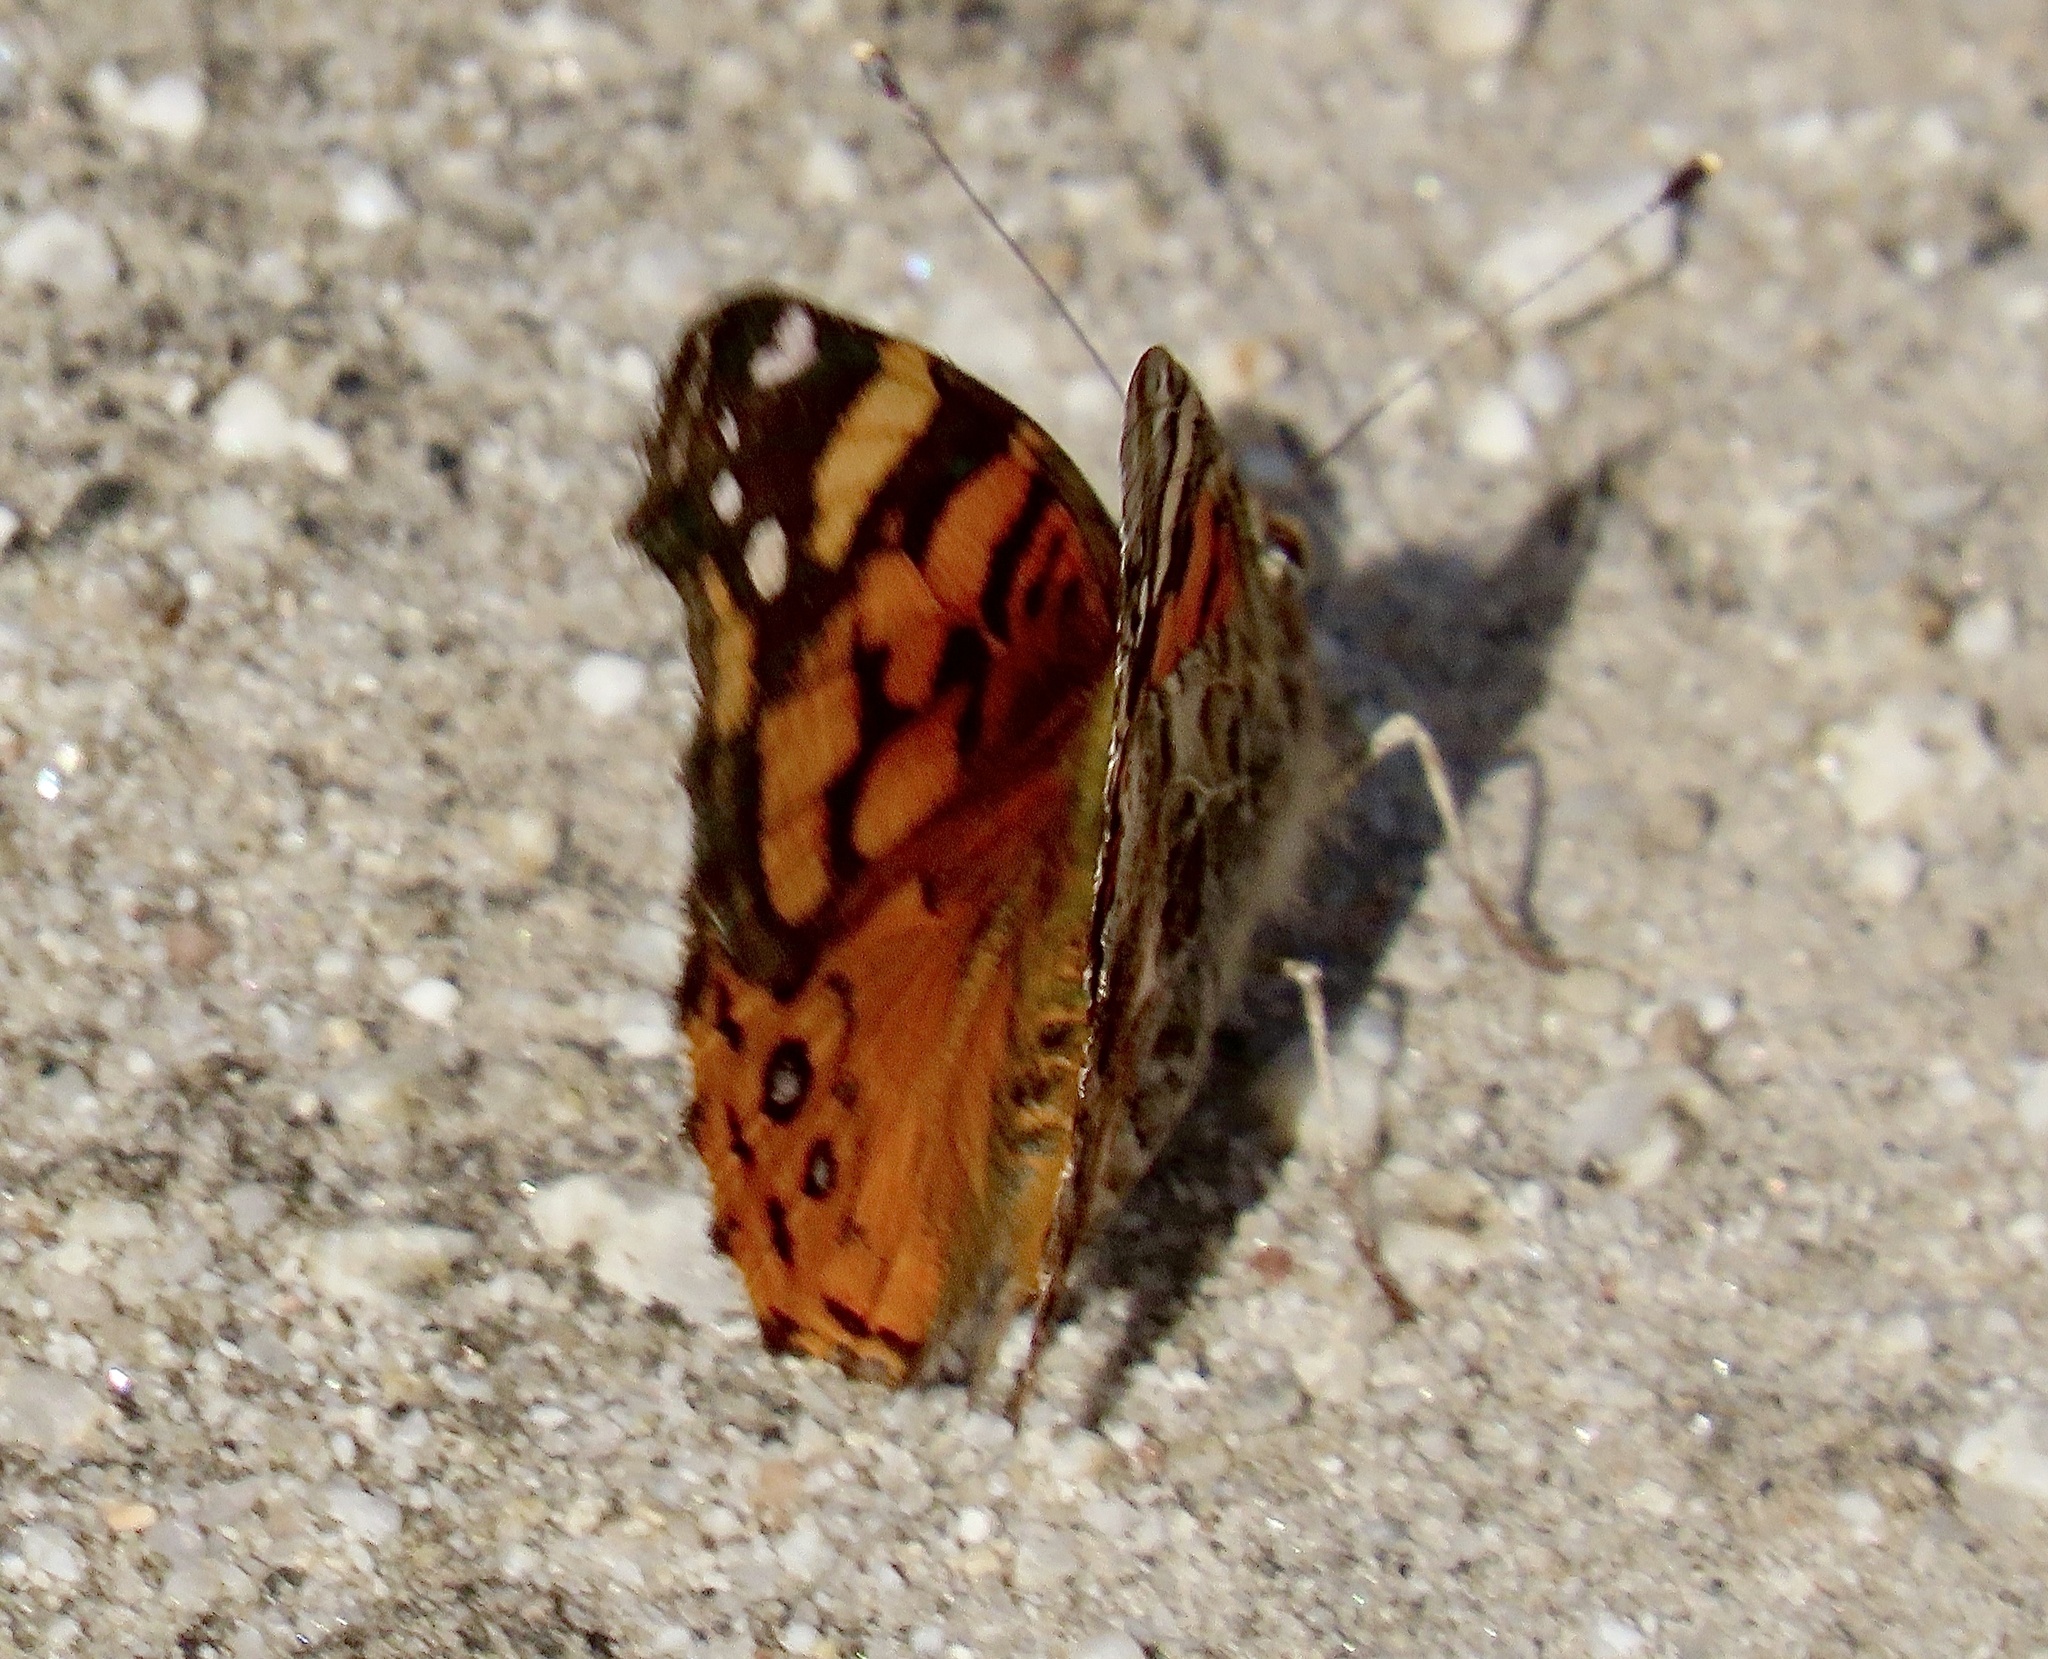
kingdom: Animalia
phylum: Arthropoda
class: Insecta
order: Lepidoptera
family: Nymphalidae
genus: Vanessa
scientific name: Vanessa annabella
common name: West coast lady
